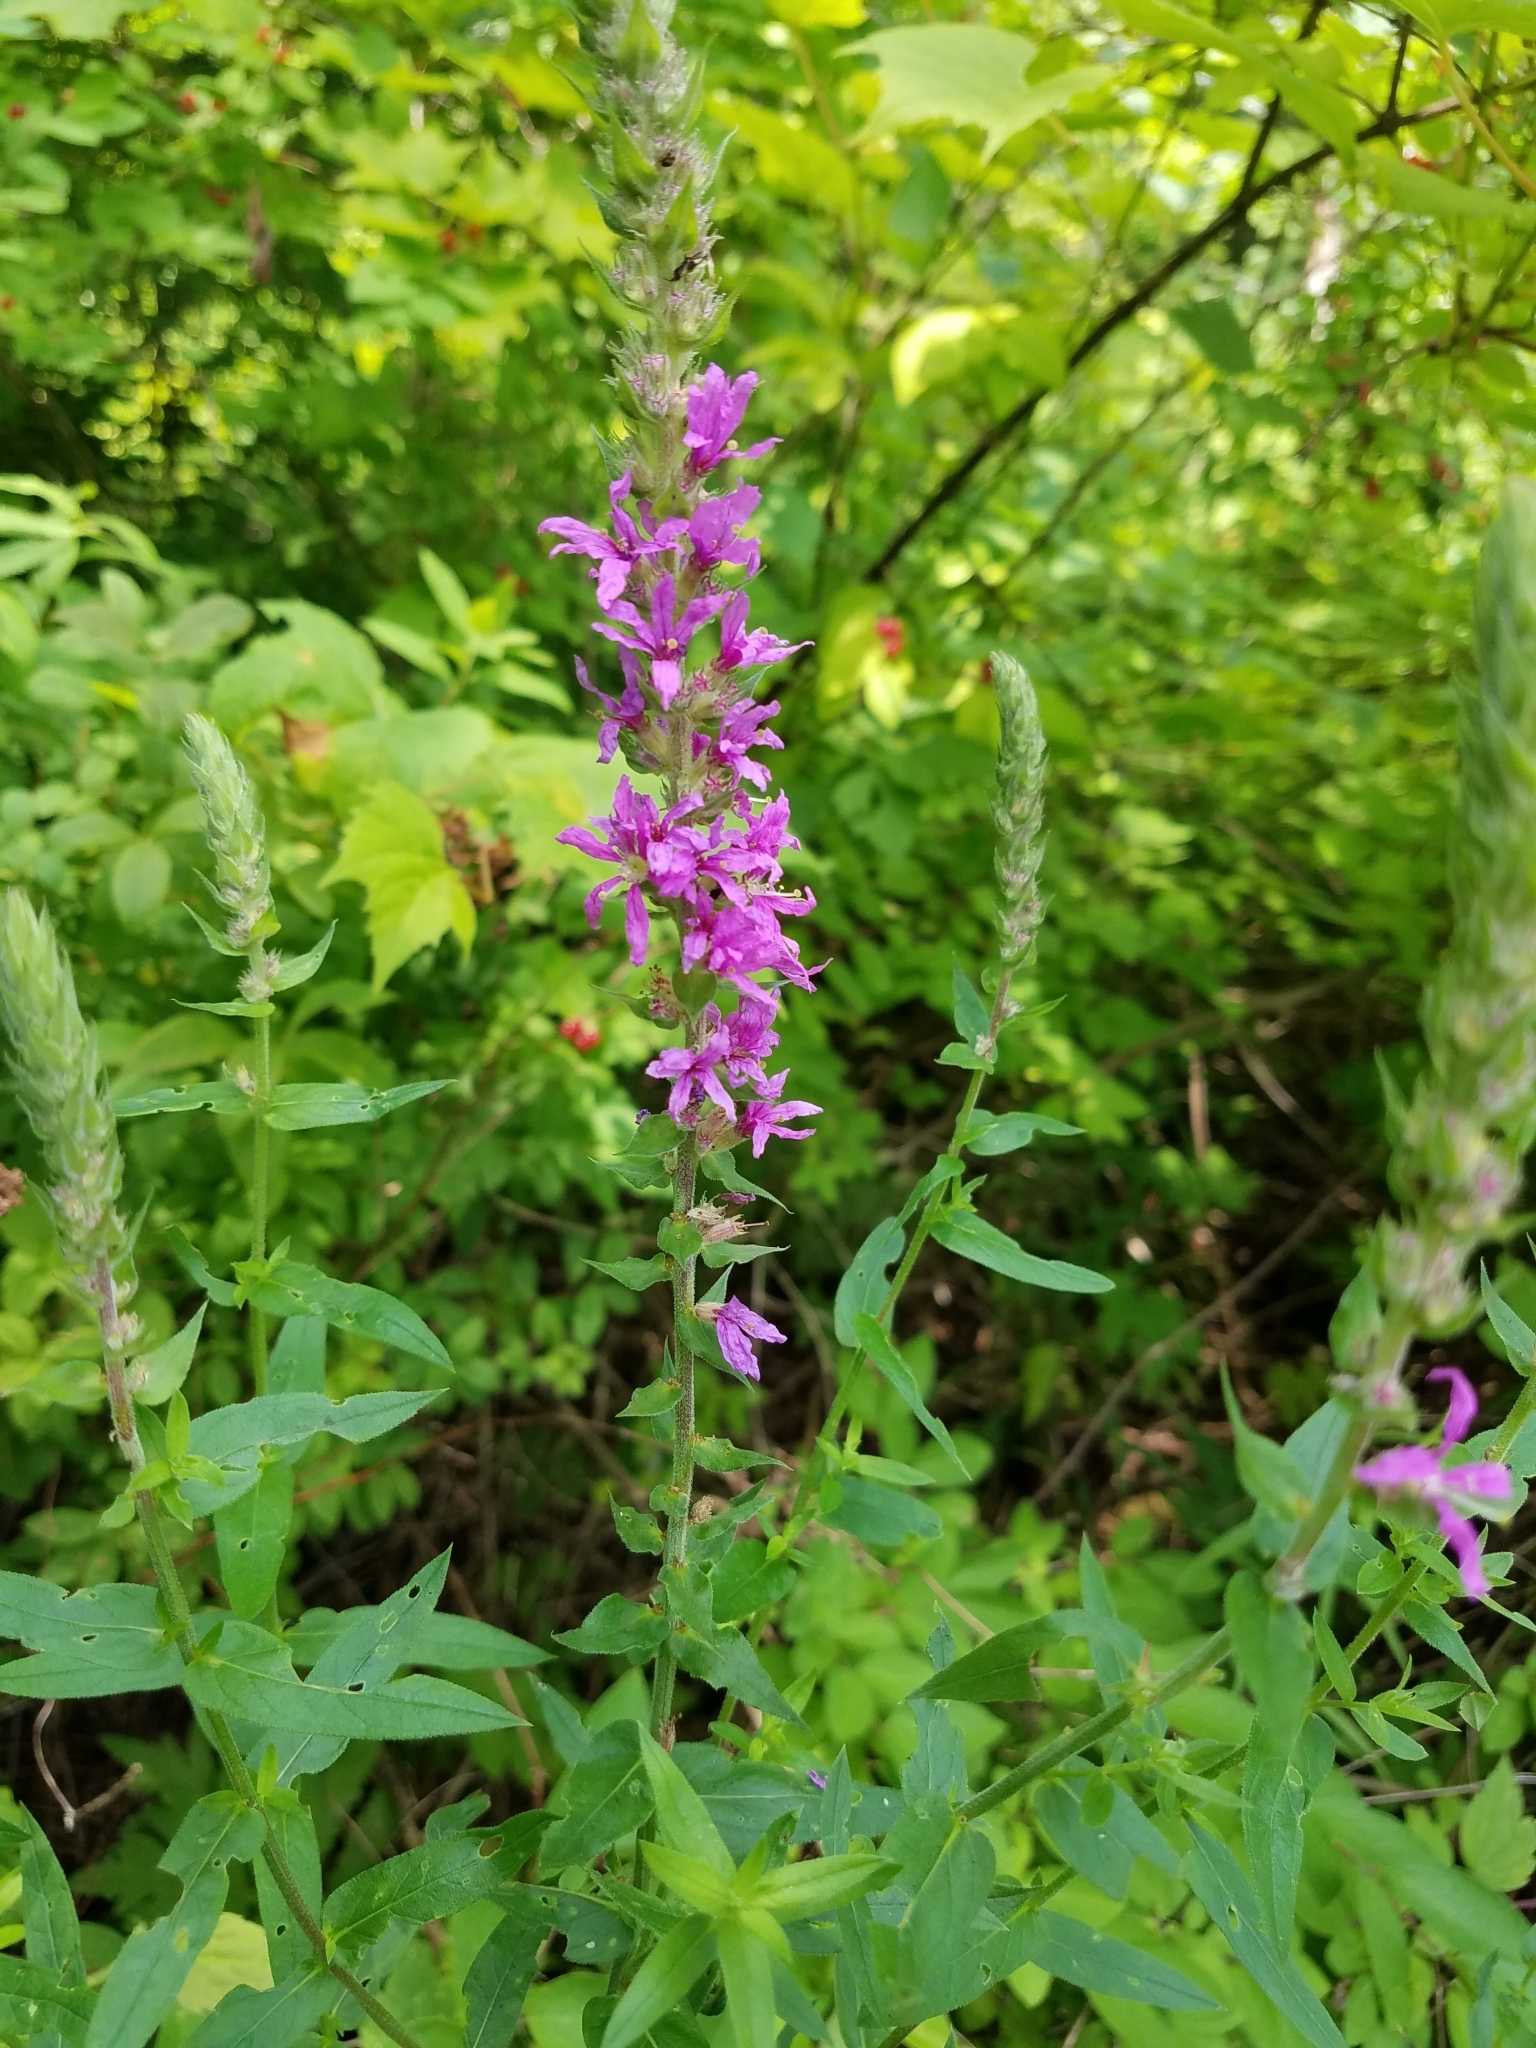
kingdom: Plantae
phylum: Tracheophyta
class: Magnoliopsida
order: Myrtales
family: Lythraceae
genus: Lythrum
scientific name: Lythrum salicaria
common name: Purple loosestrife
